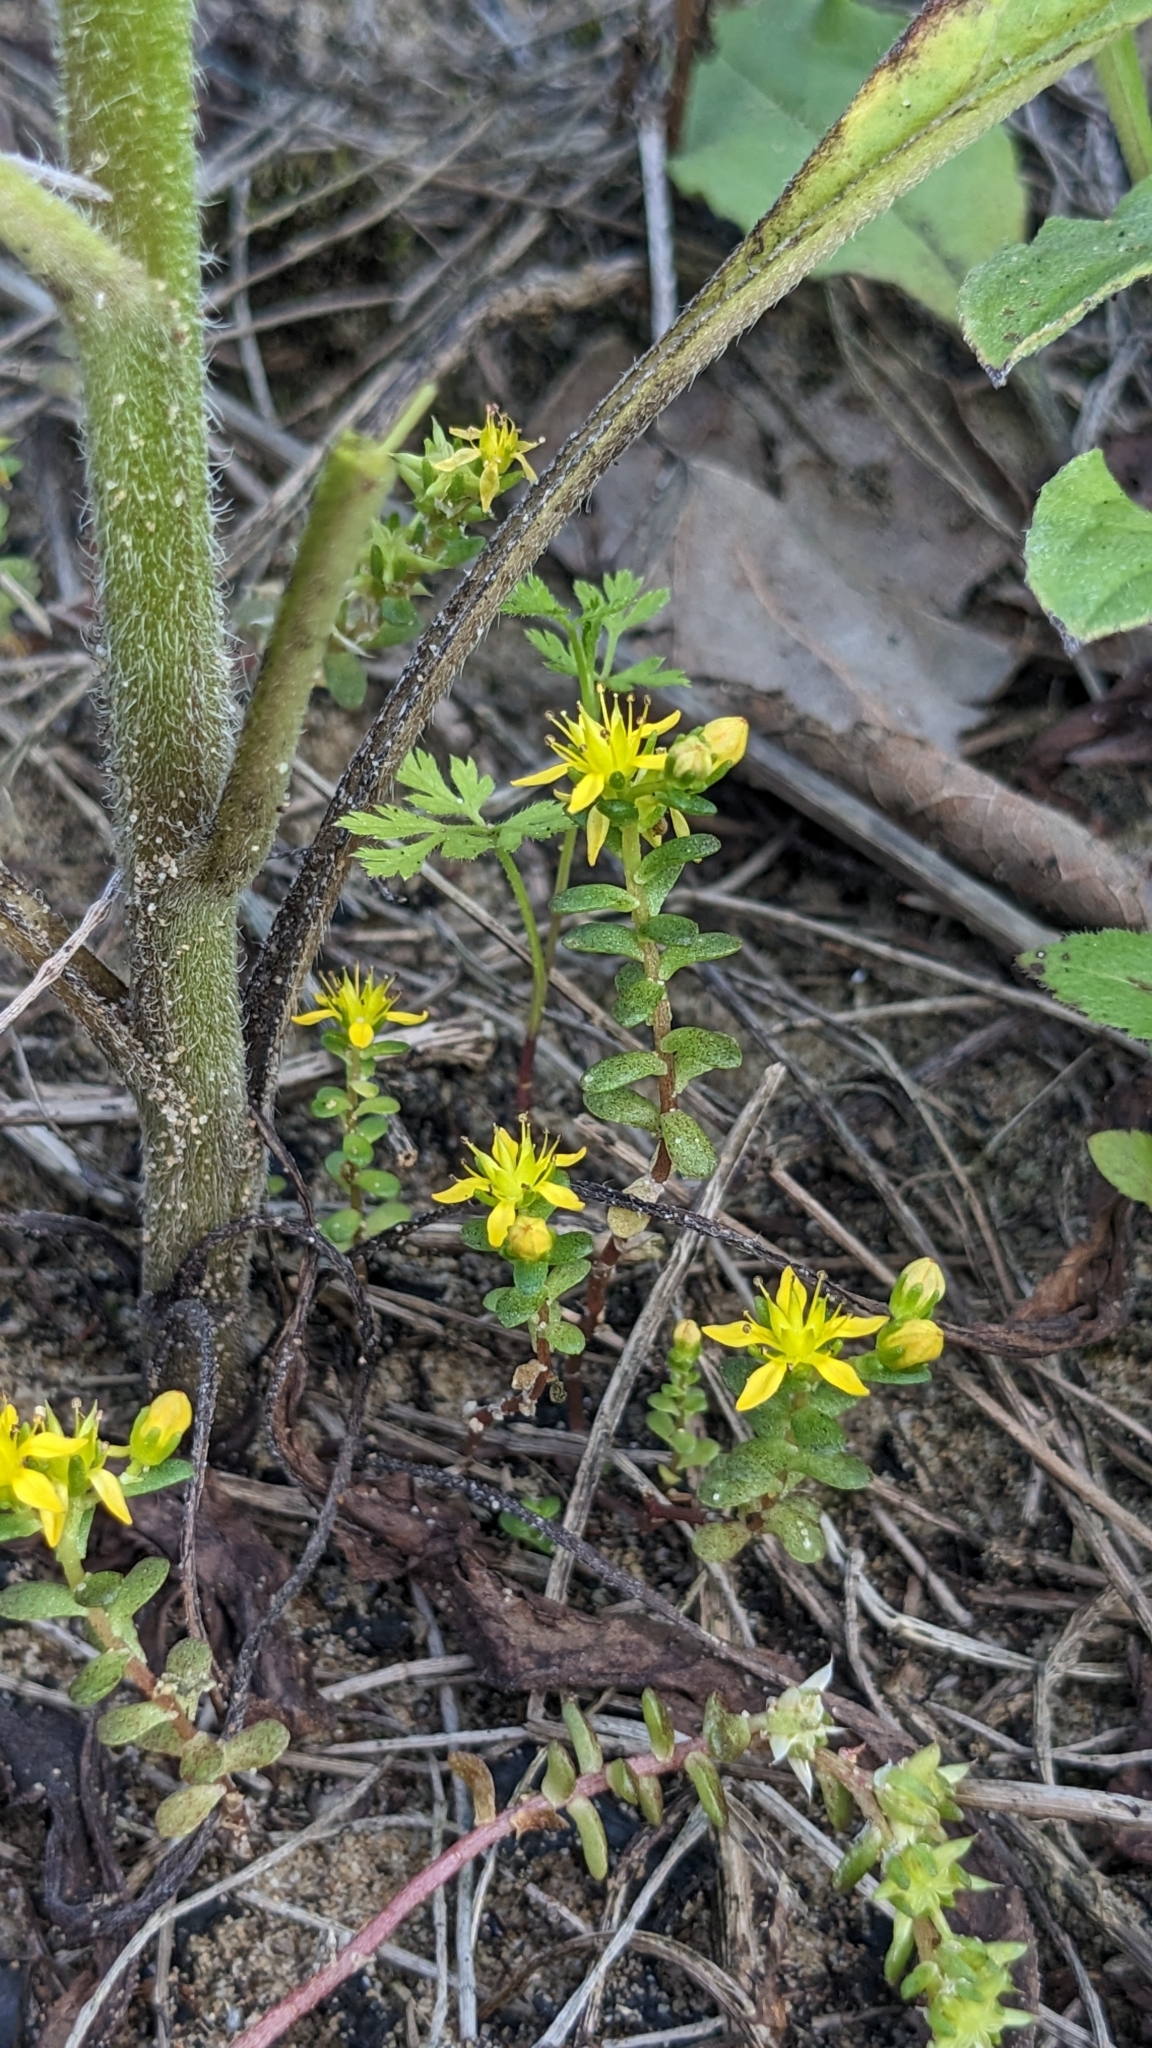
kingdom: Plantae
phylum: Tracheophyta
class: Magnoliopsida
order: Saxifragales
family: Crassulaceae
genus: Sedum
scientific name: Sedum japonicum
